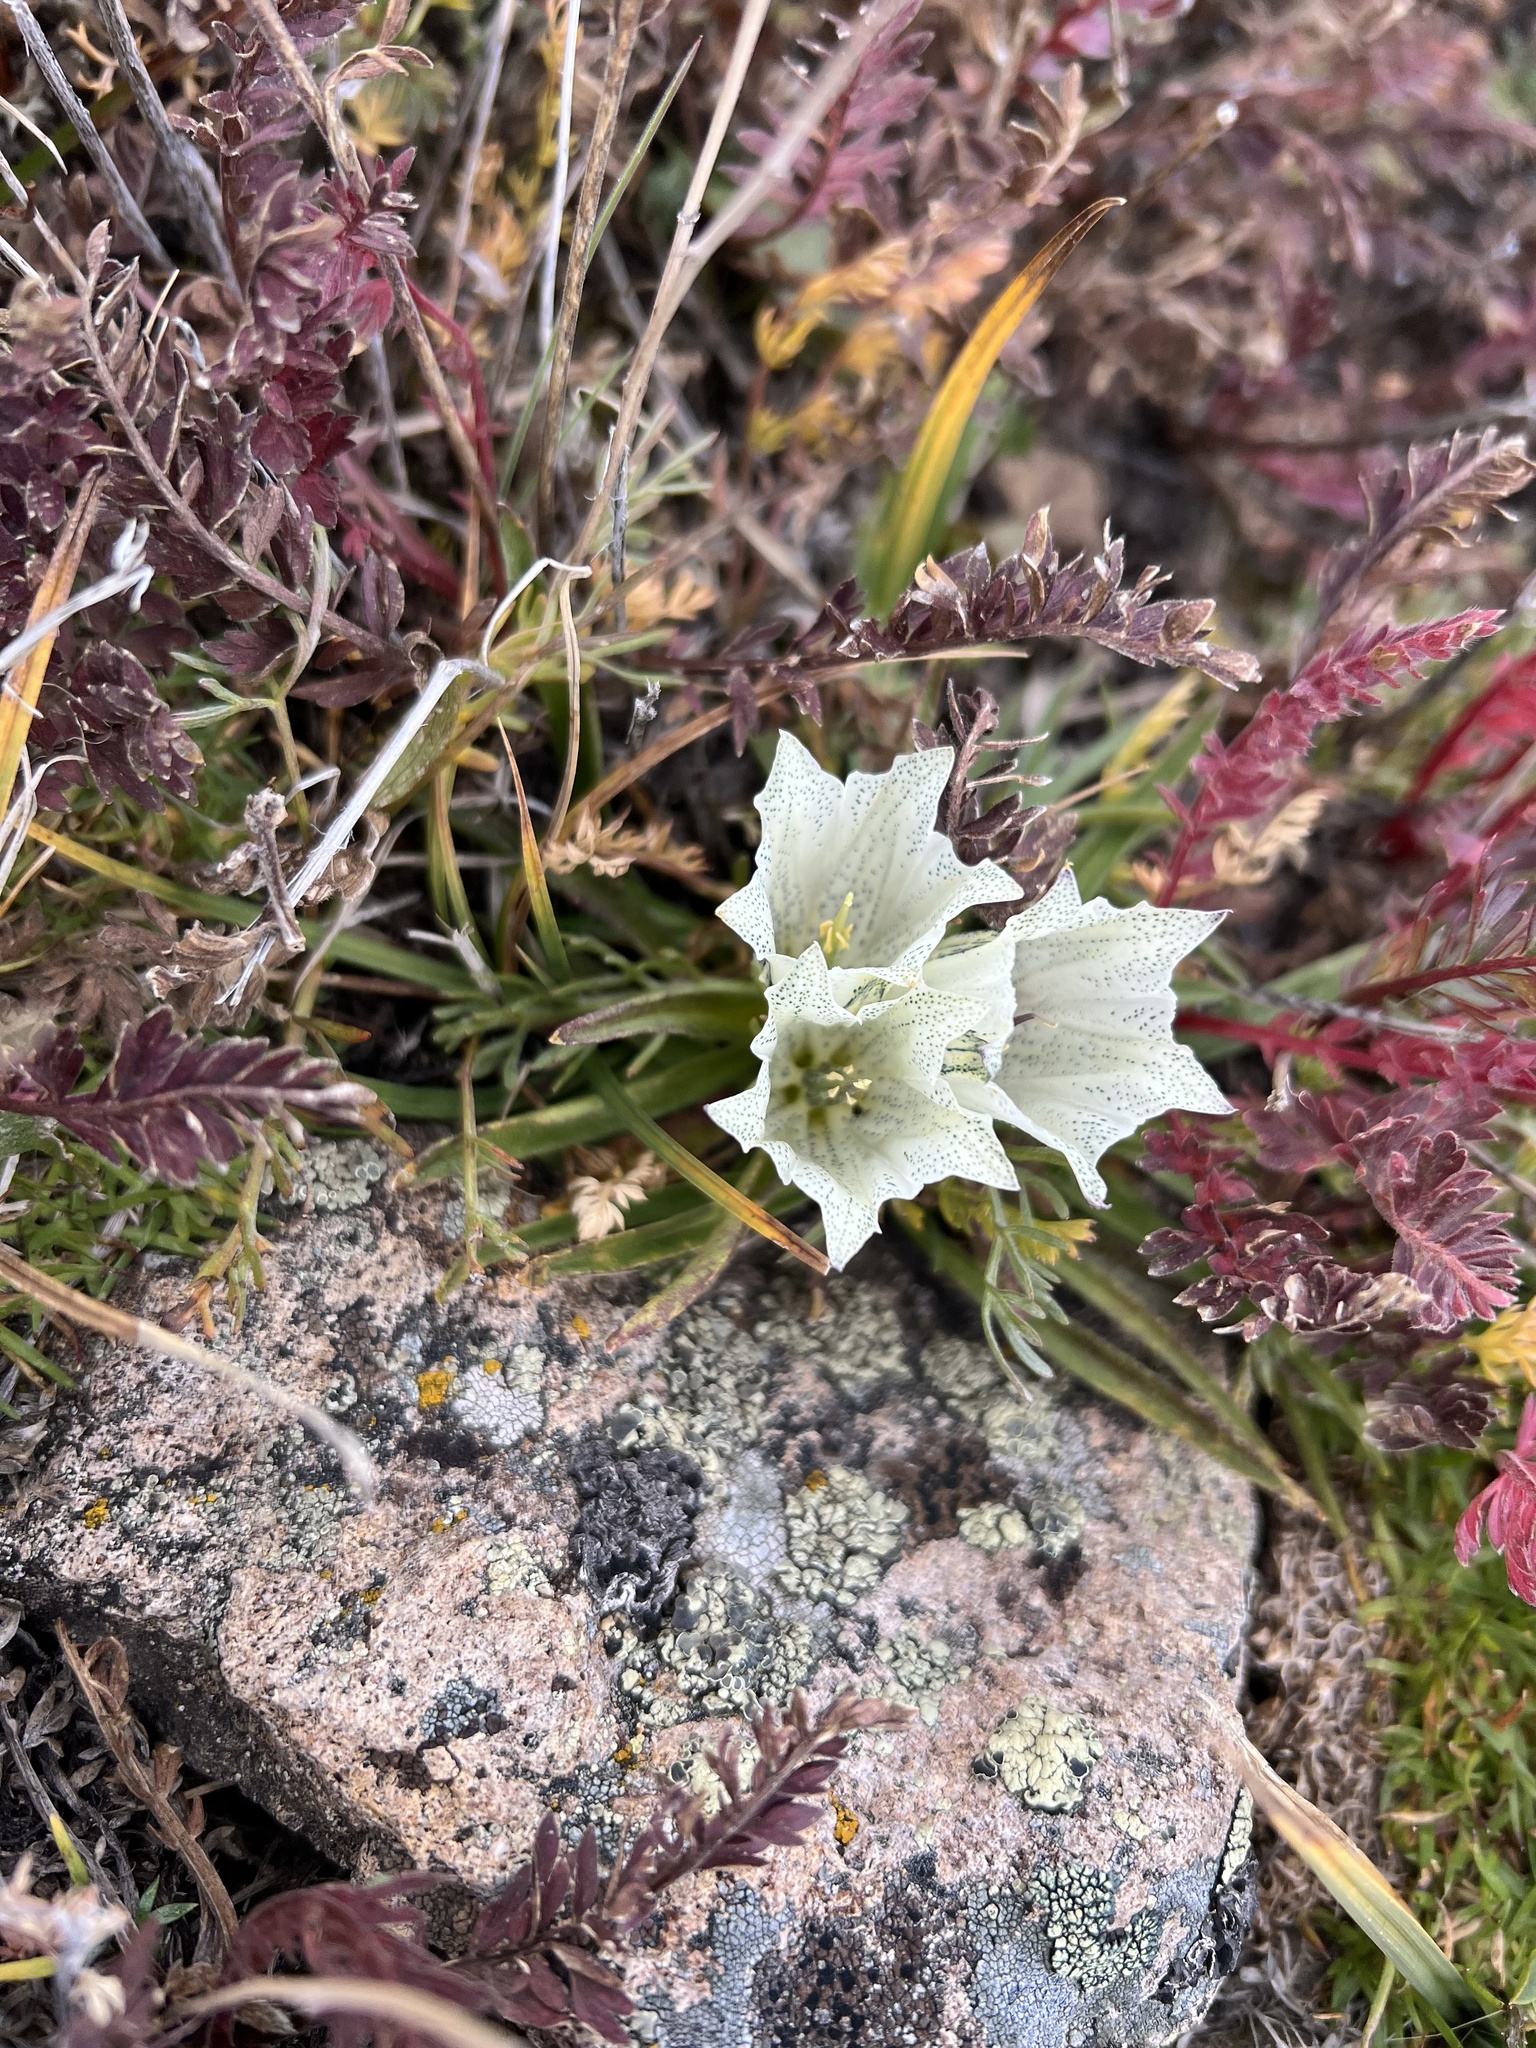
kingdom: Plantae
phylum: Tracheophyta
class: Magnoliopsida
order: Gentianales
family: Gentianaceae
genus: Gentiana
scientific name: Gentiana algida
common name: Arctic gentian
